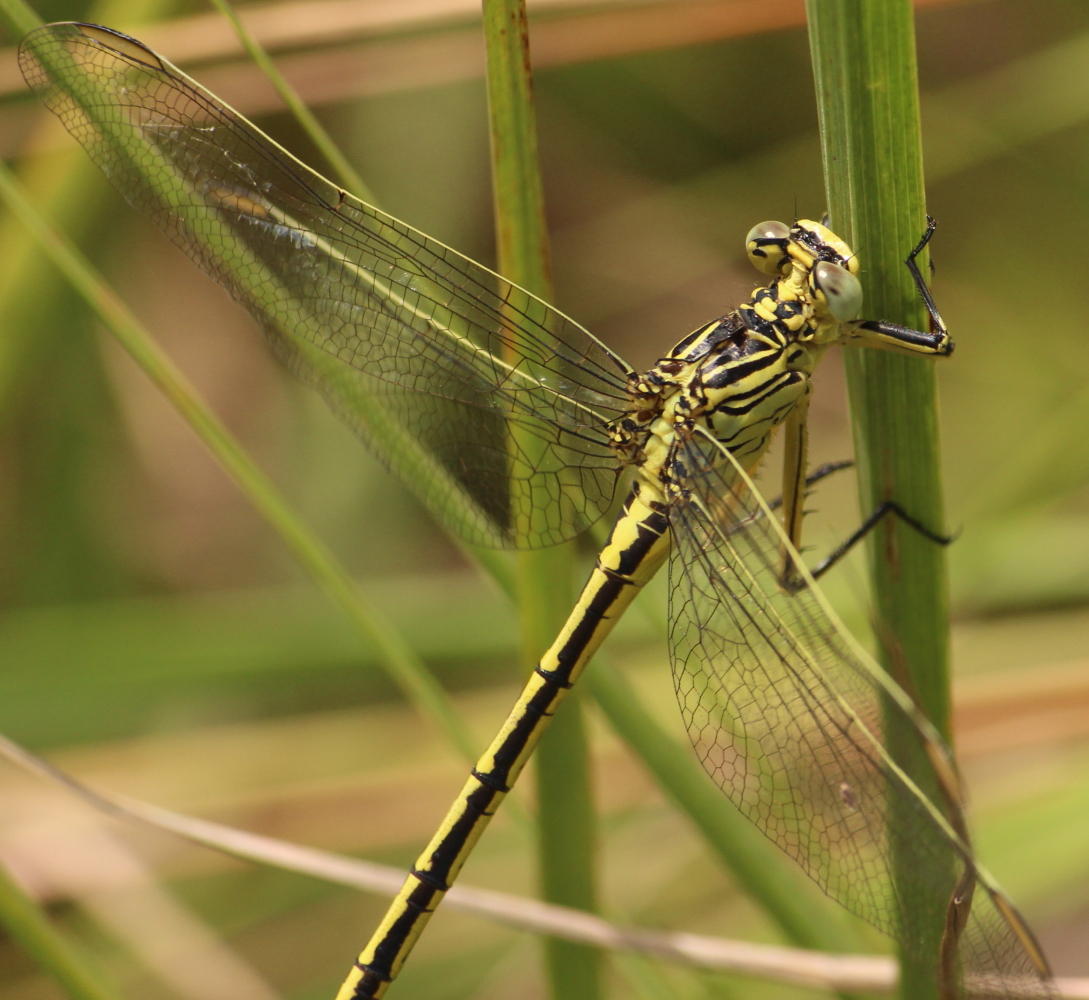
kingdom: Animalia
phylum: Arthropoda
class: Insecta
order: Odonata
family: Gomphidae
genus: Notogomphus
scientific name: Notogomphus praetorius
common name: Southern yellowjack
